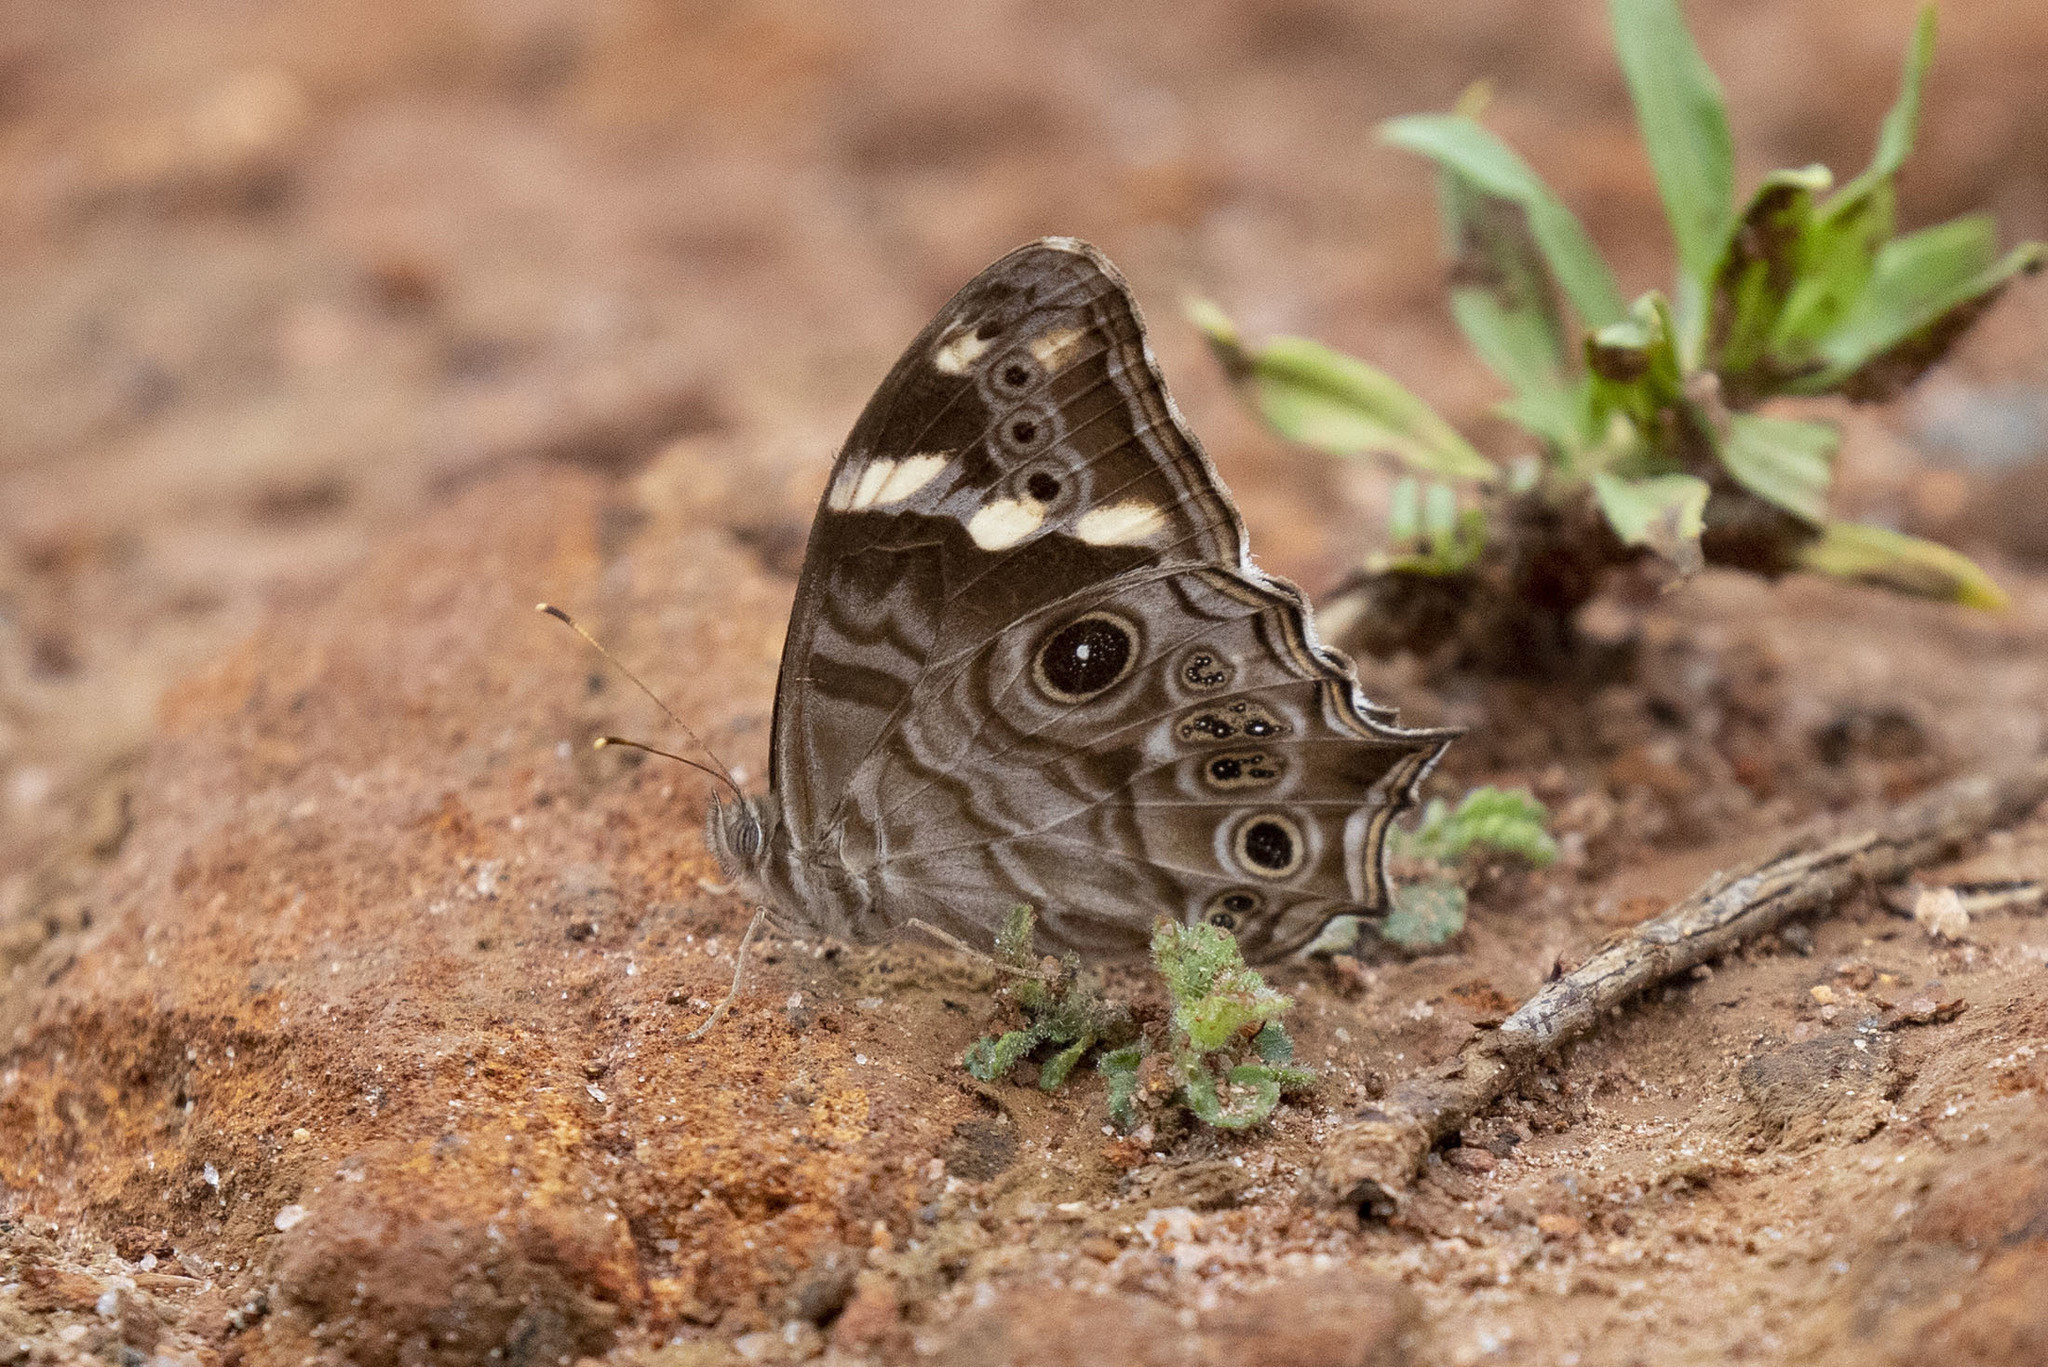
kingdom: Animalia
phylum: Arthropoda
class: Insecta
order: Lepidoptera
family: Nymphalidae
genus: Lethe
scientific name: Lethe rohria
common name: Common treebrown
